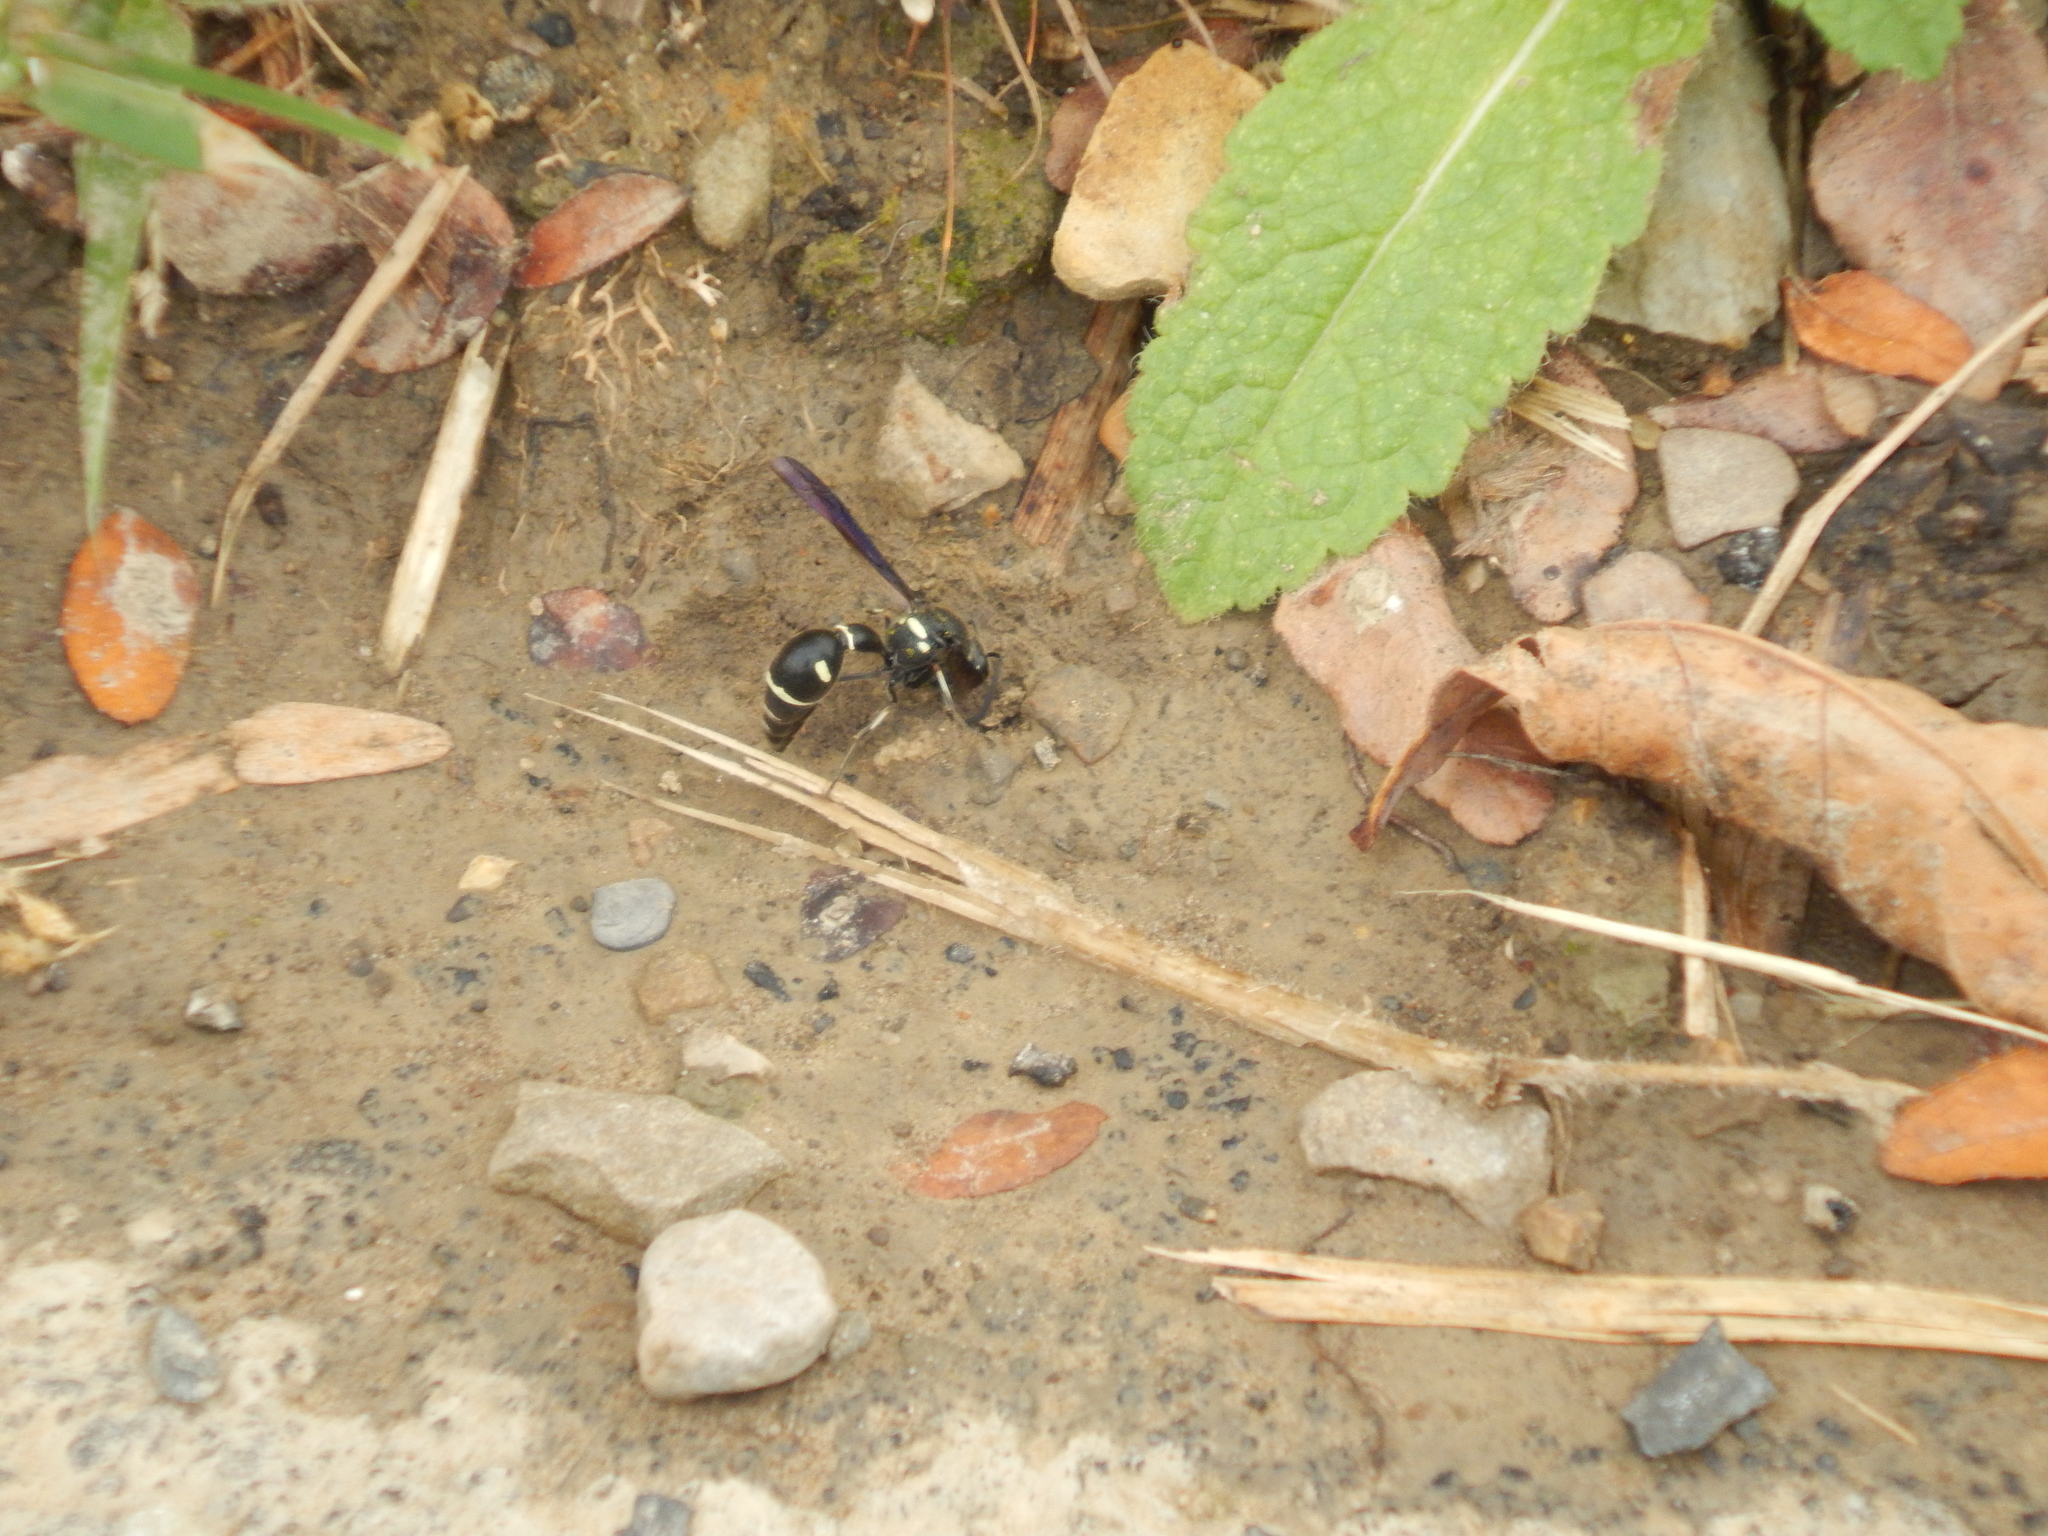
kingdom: Animalia
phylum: Arthropoda
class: Insecta
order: Hymenoptera
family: Vespidae
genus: Eumenes
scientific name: Eumenes fraternus
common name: Fraternal potter wasp
